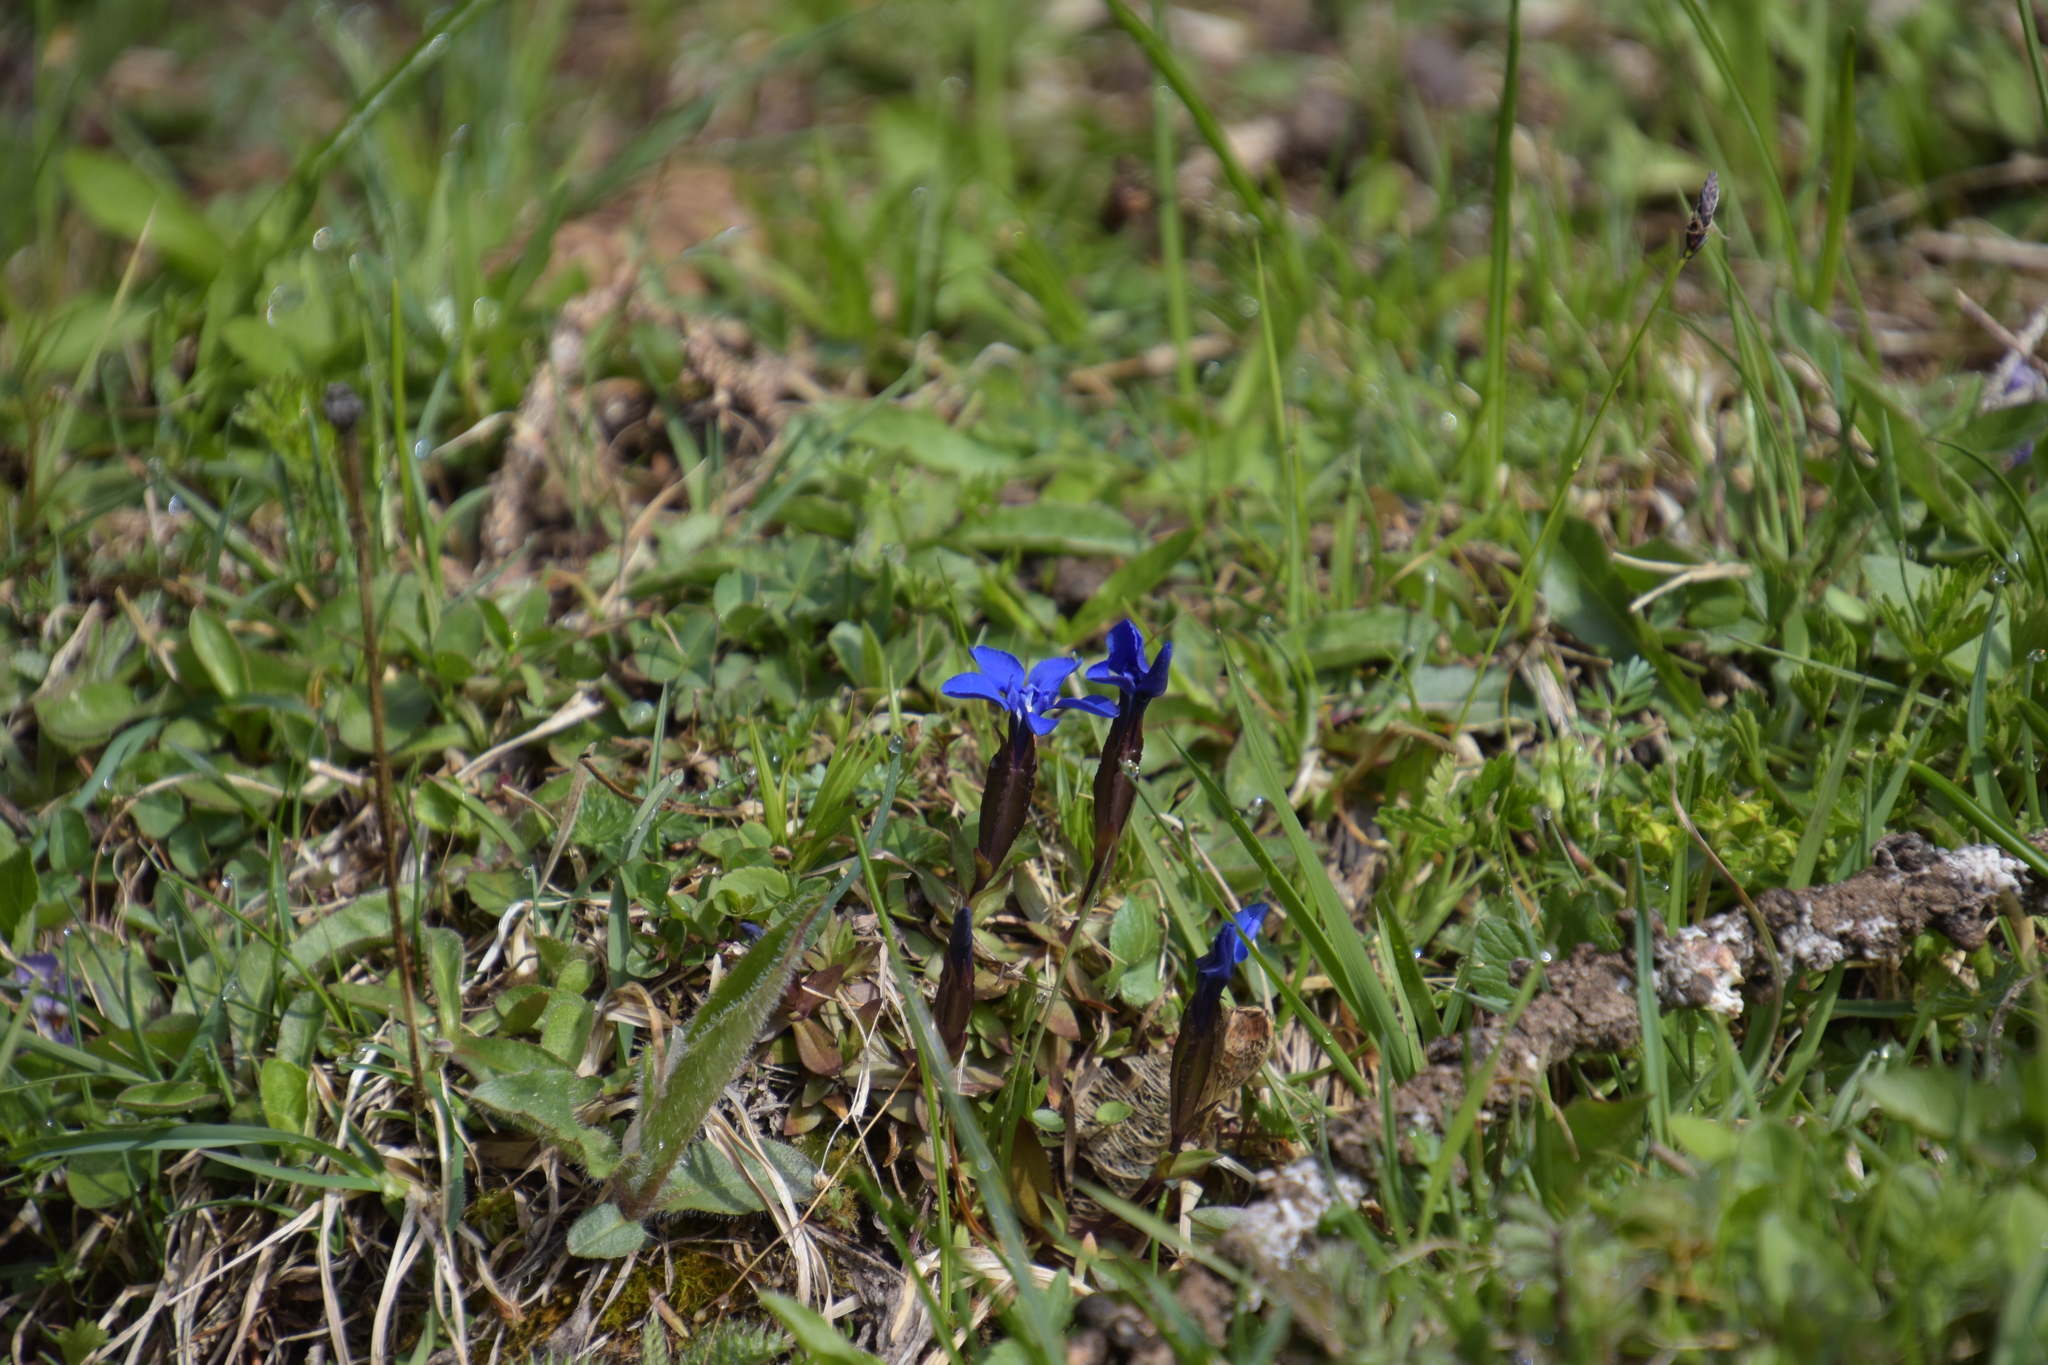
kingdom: Plantae
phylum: Tracheophyta
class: Magnoliopsida
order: Gentianales
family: Gentianaceae
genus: Gentiana
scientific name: Gentiana verna
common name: Spring gentian
